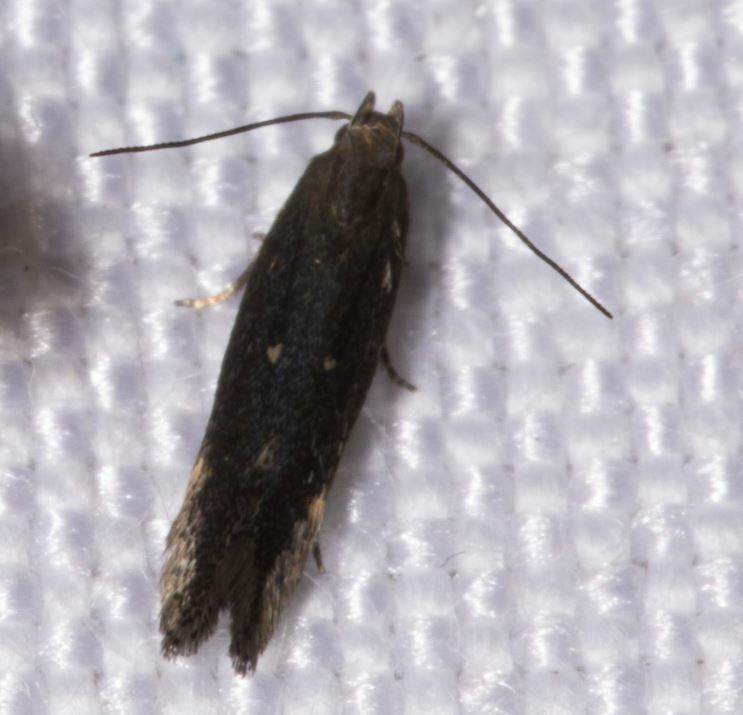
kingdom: Animalia
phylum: Arthropoda
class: Insecta
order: Lepidoptera
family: Gelechiidae
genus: Aproaerema
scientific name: Aproaerema anthyllidella
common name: Vetch sober
